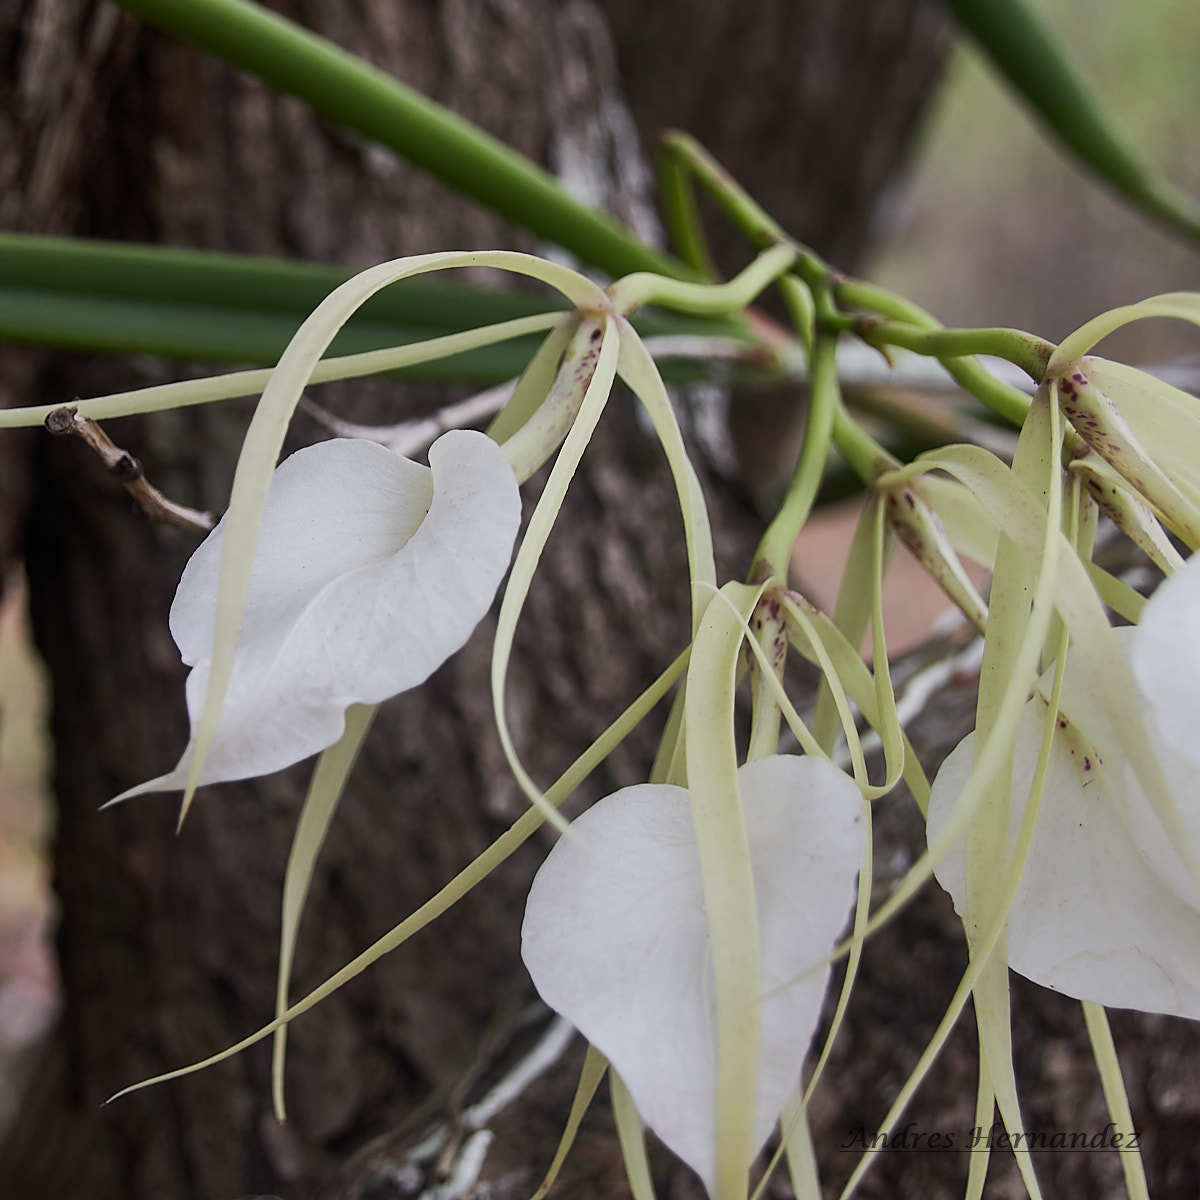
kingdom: Plantae
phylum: Tracheophyta
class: Liliopsida
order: Asparagales
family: Orchidaceae
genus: Brassavola
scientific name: Brassavola nodosa
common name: Lady of the night
